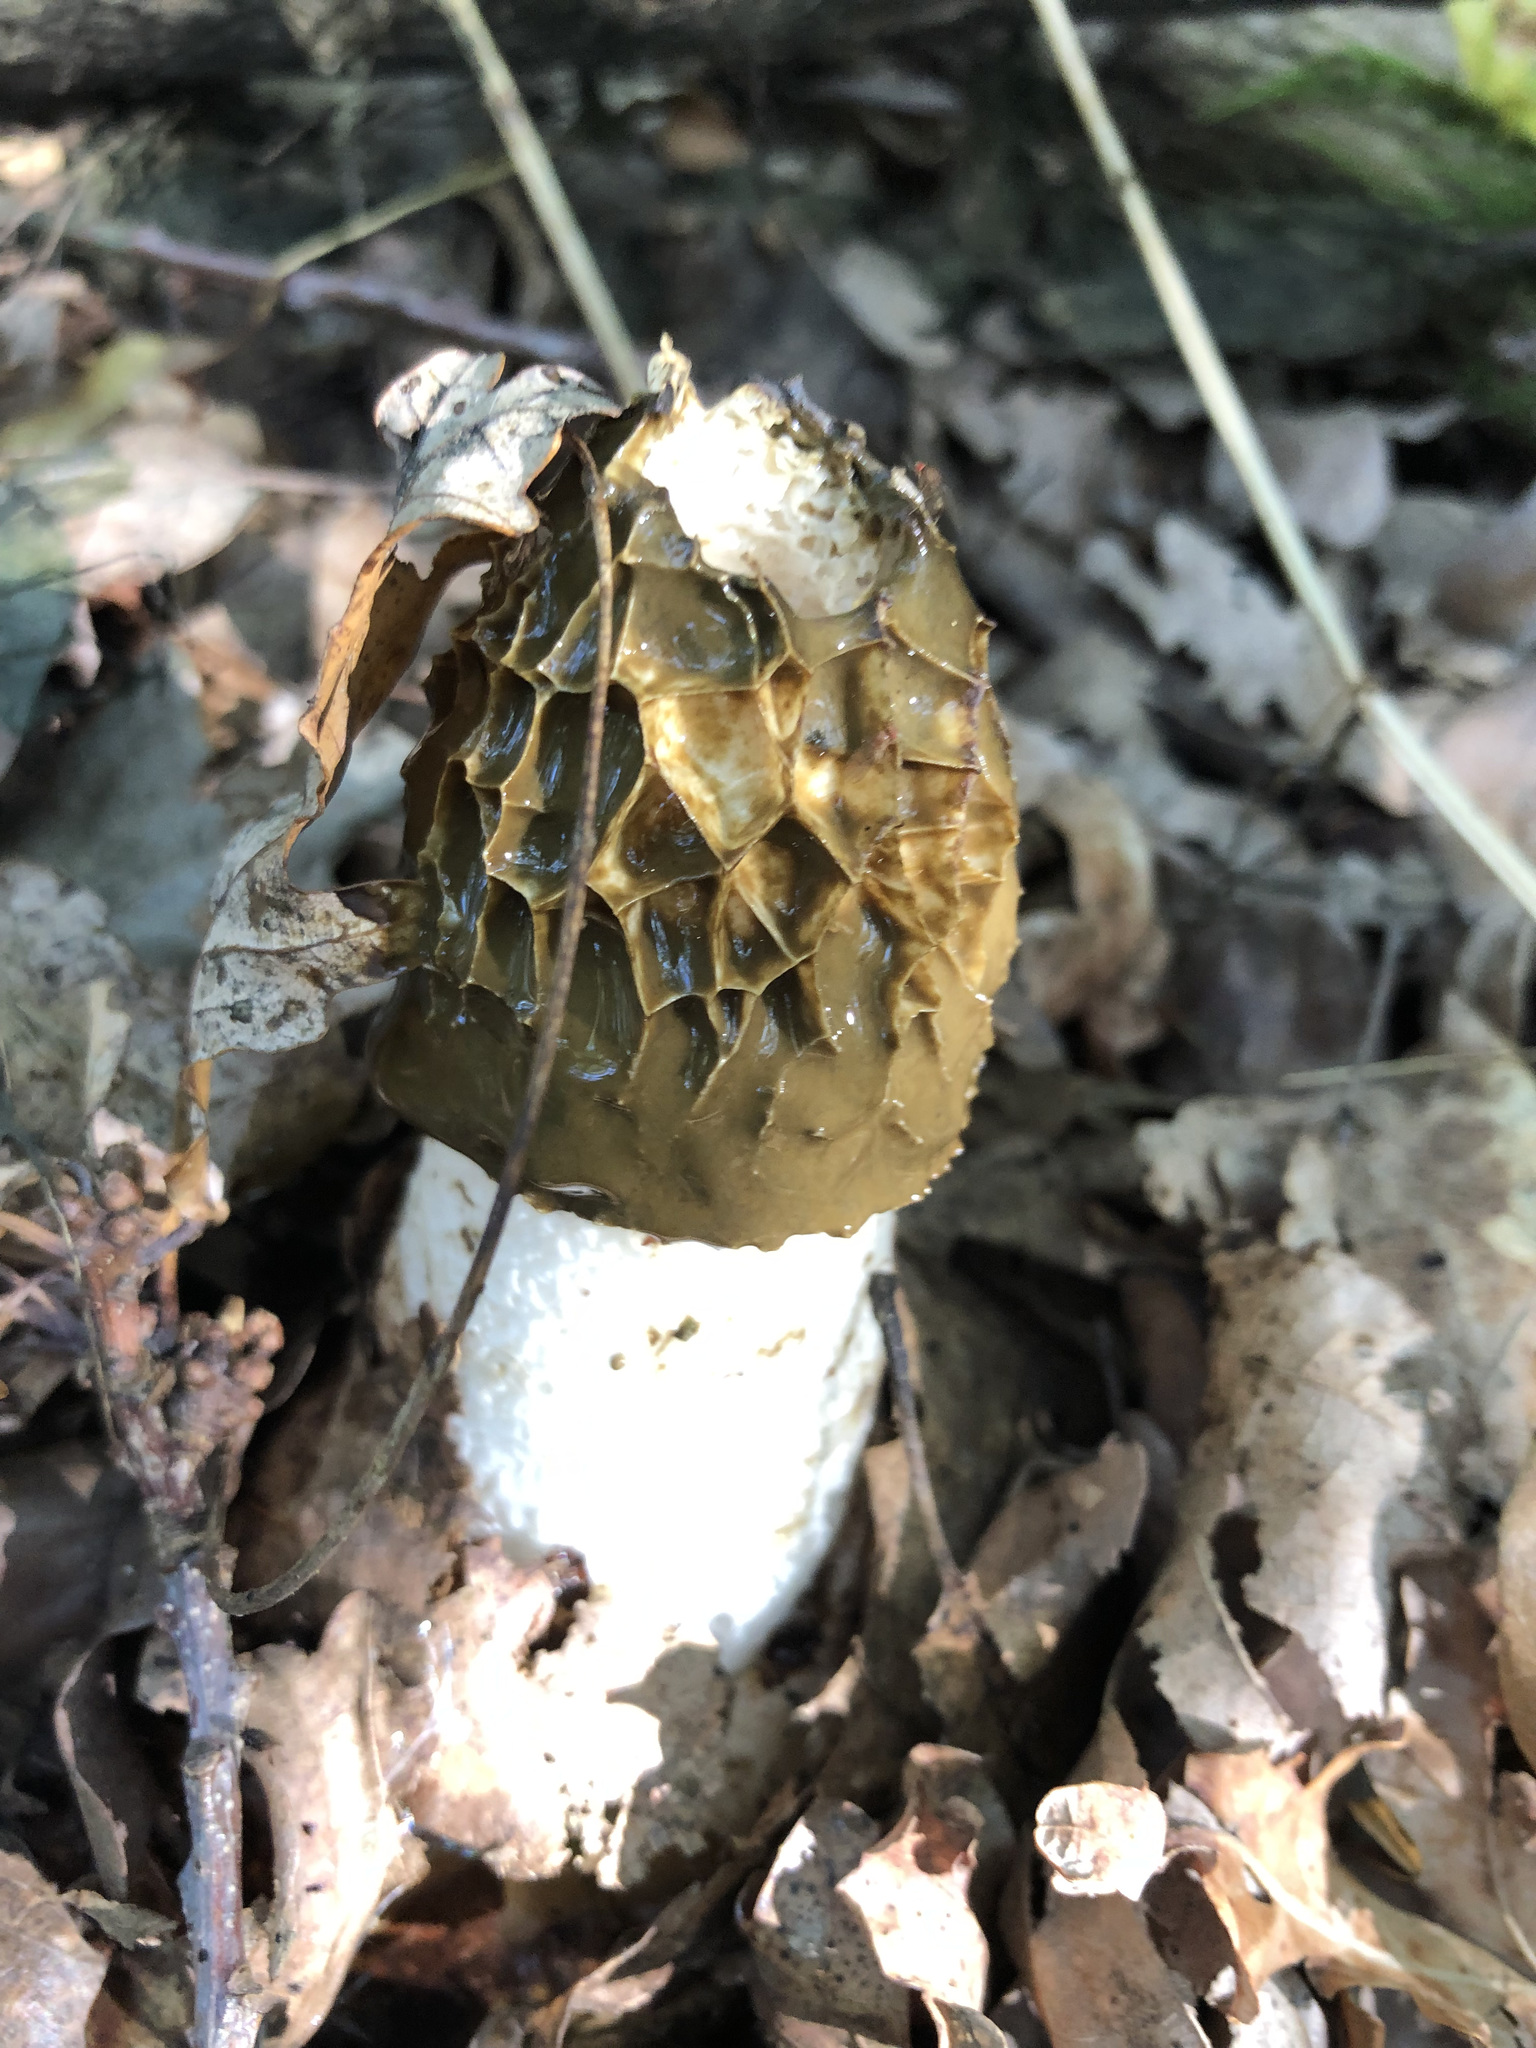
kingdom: Fungi
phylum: Basidiomycota
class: Agaricomycetes
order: Phallales
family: Phallaceae
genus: Phallus
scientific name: Phallus impudicus
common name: Common stinkhorn
